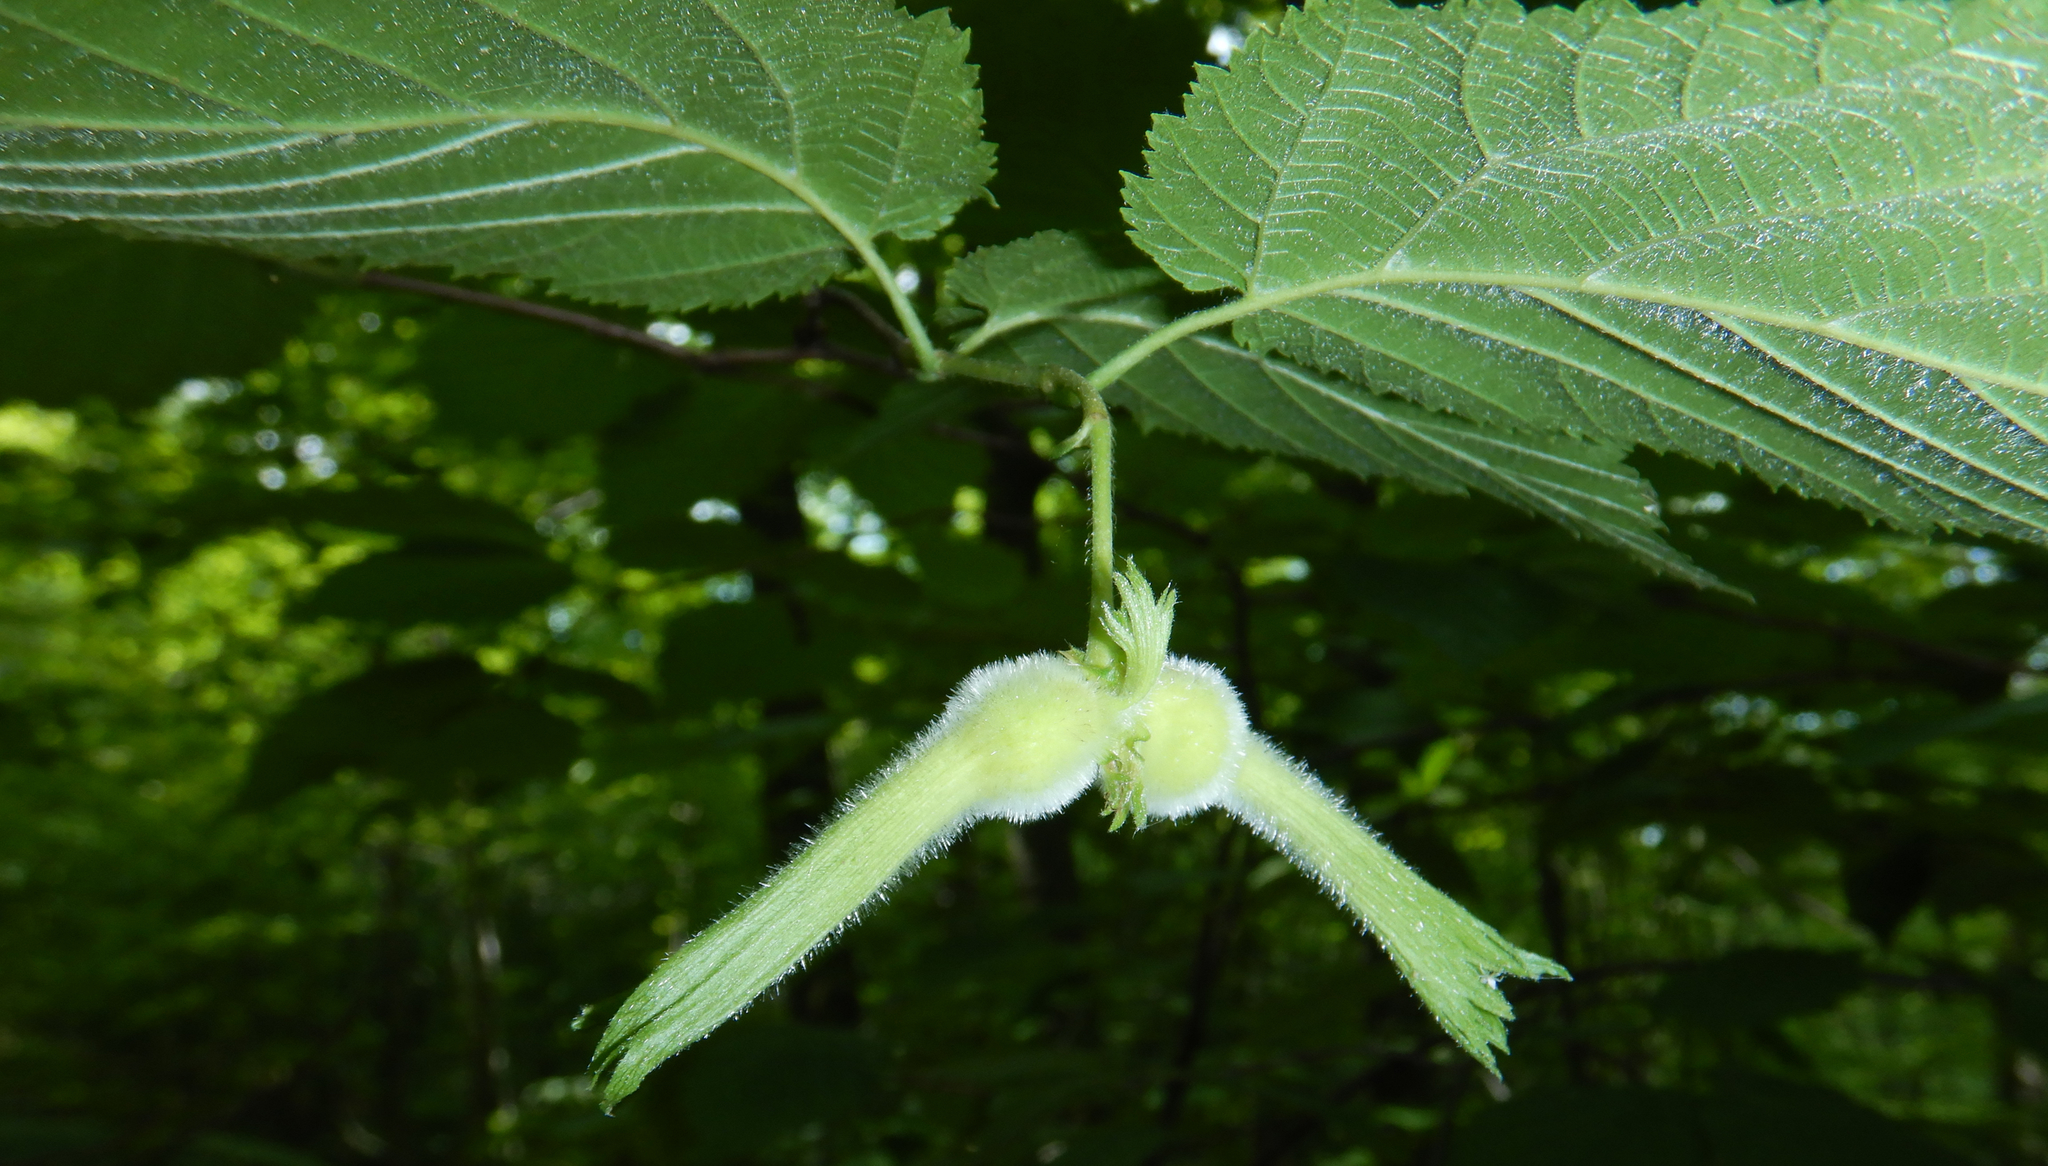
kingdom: Plantae
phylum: Tracheophyta
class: Magnoliopsida
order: Fagales
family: Betulaceae
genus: Corylus
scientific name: Corylus cornuta
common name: Beaked hazel
